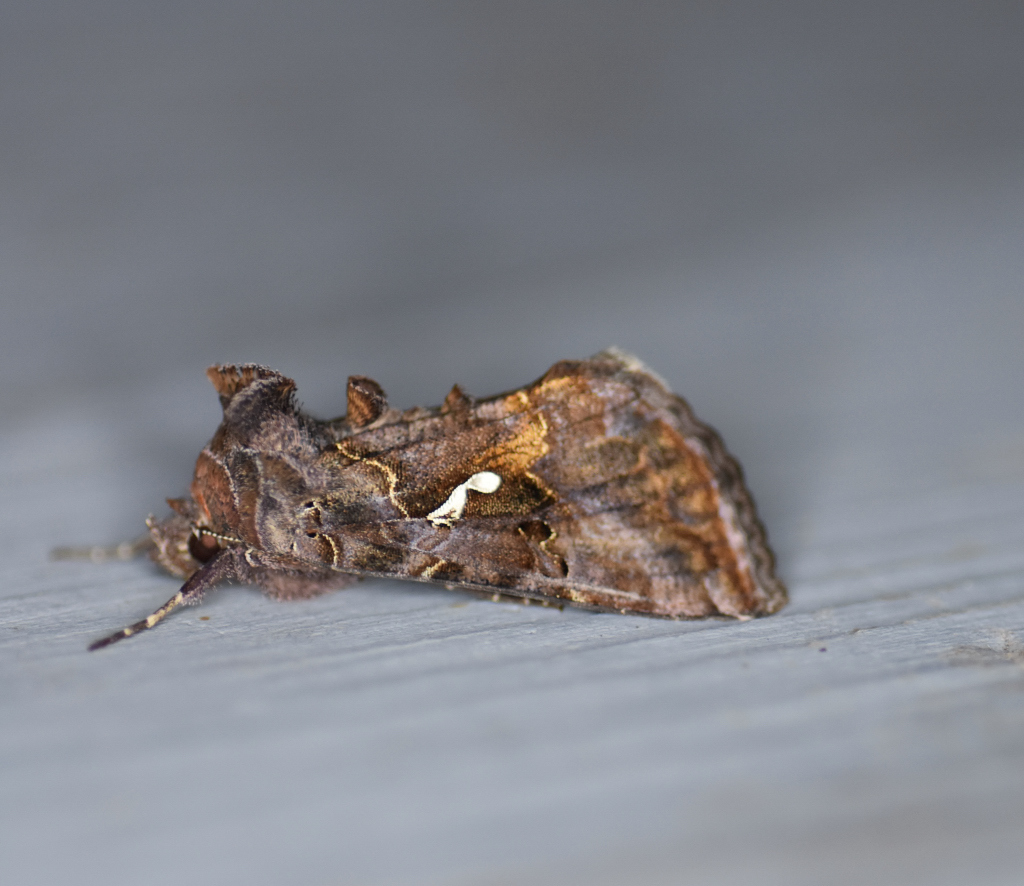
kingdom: Animalia
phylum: Arthropoda
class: Insecta
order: Lepidoptera
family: Noctuidae
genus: Autographa
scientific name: Autographa precationis
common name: Common looper moth
